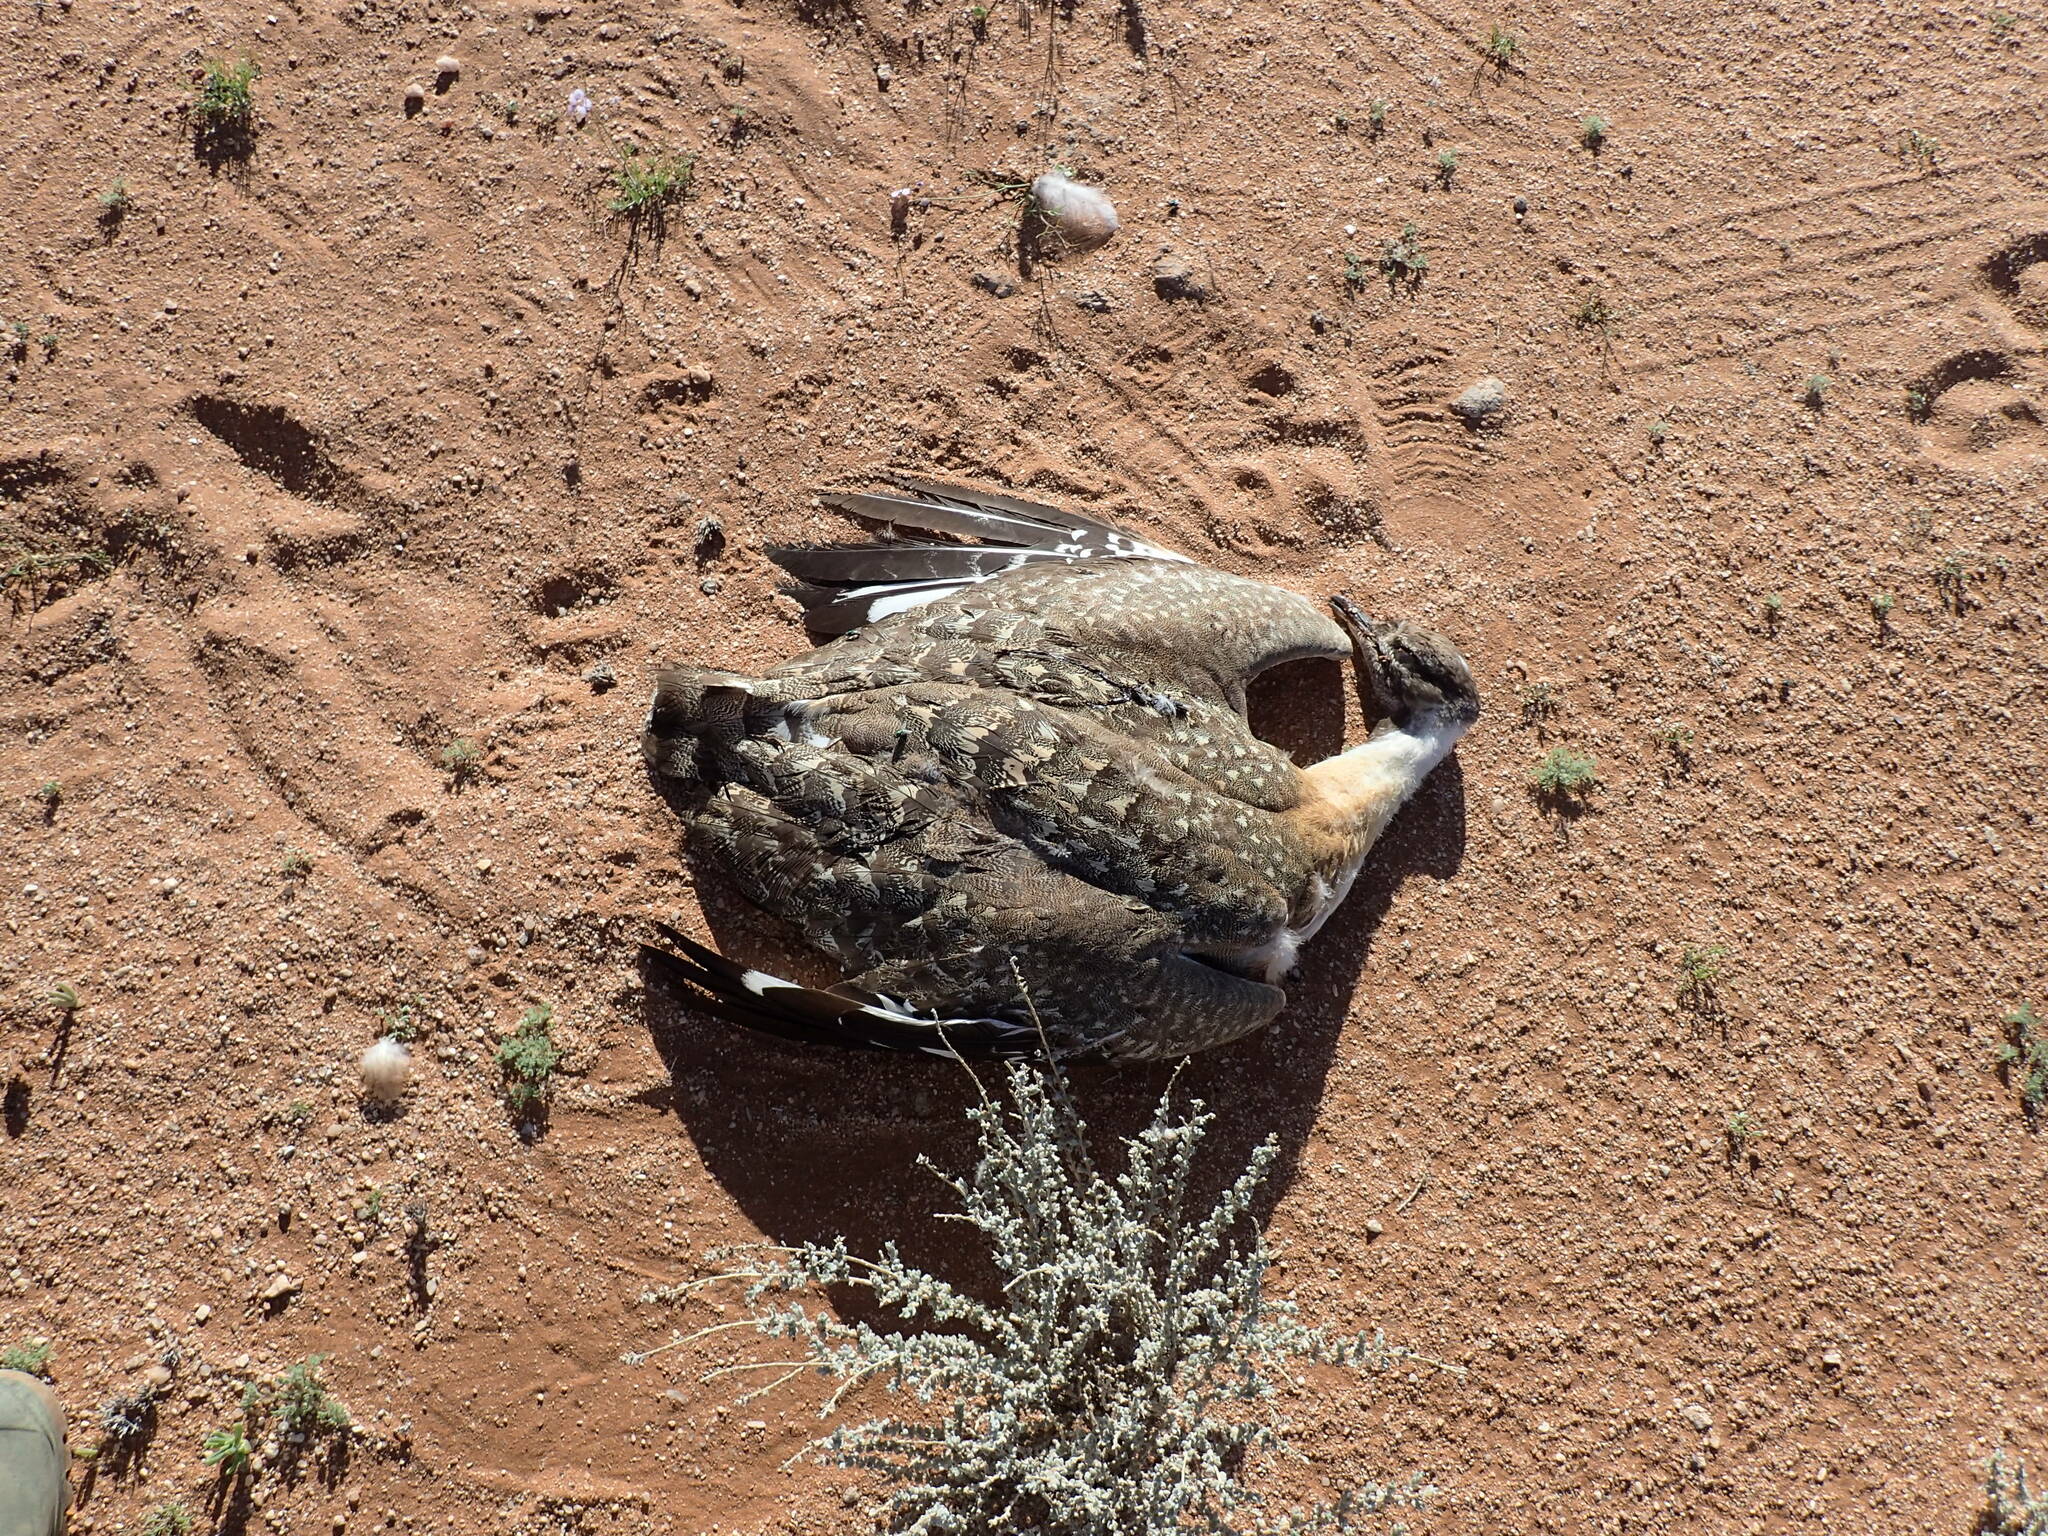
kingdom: Animalia
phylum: Chordata
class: Aves
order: Otidiformes
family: Otididae
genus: Neotis
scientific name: Neotis ludwigii
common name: Ludwig's bustard
